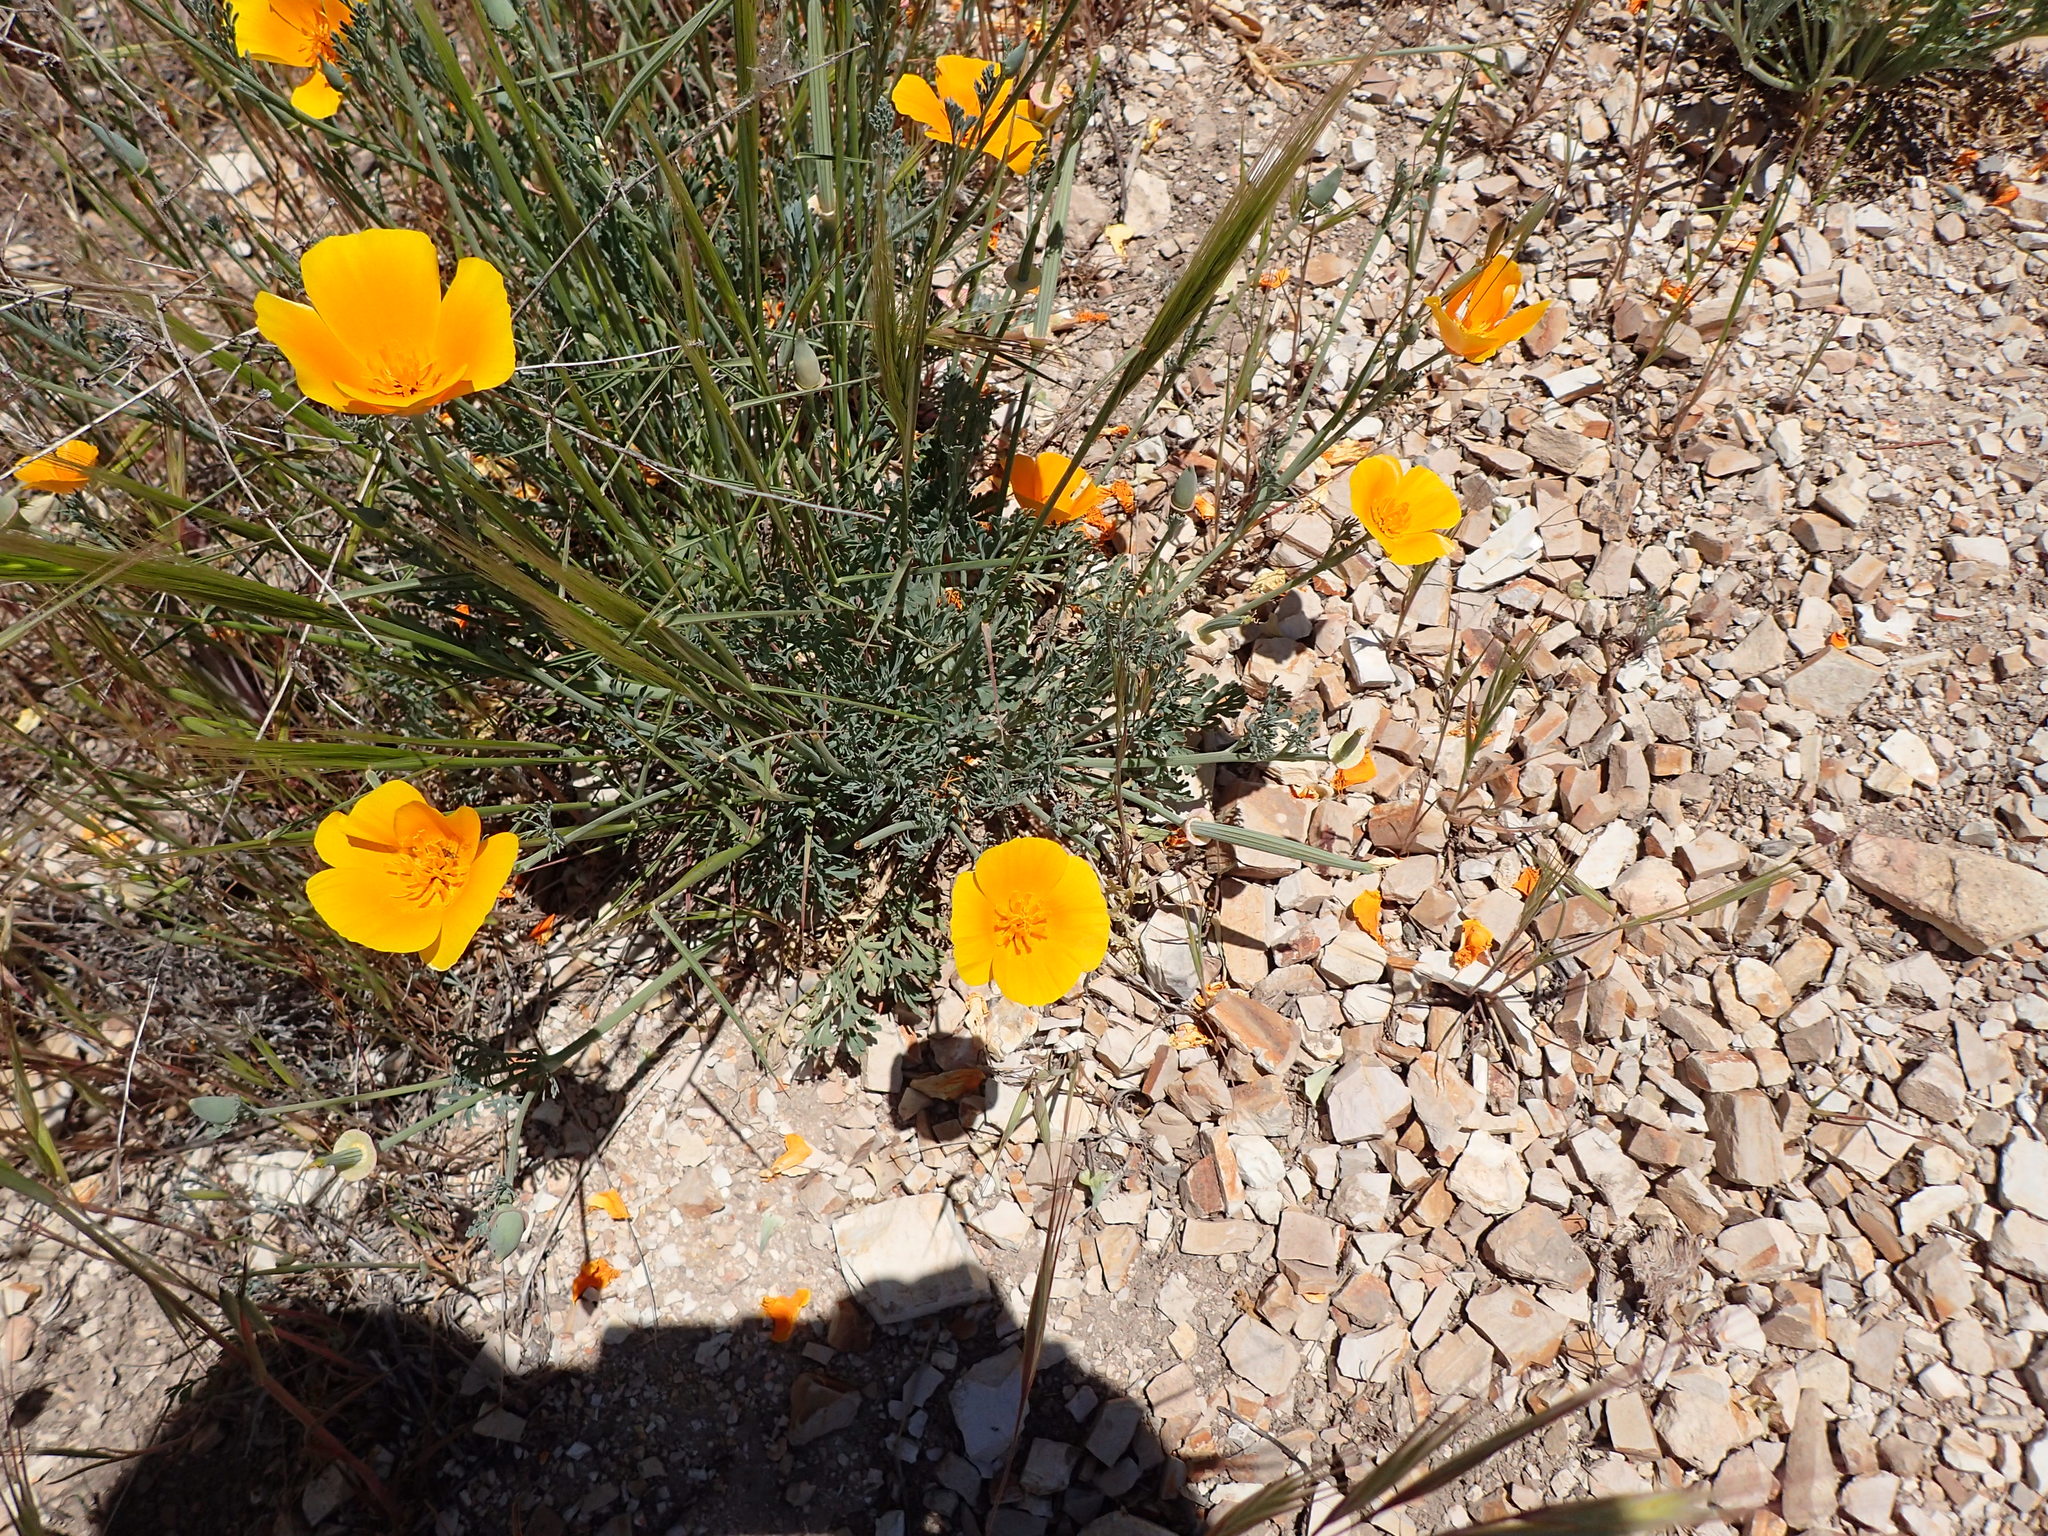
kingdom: Plantae
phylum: Tracheophyta
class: Magnoliopsida
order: Ranunculales
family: Papaveraceae
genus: Eschscholzia
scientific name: Eschscholzia californica
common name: California poppy
